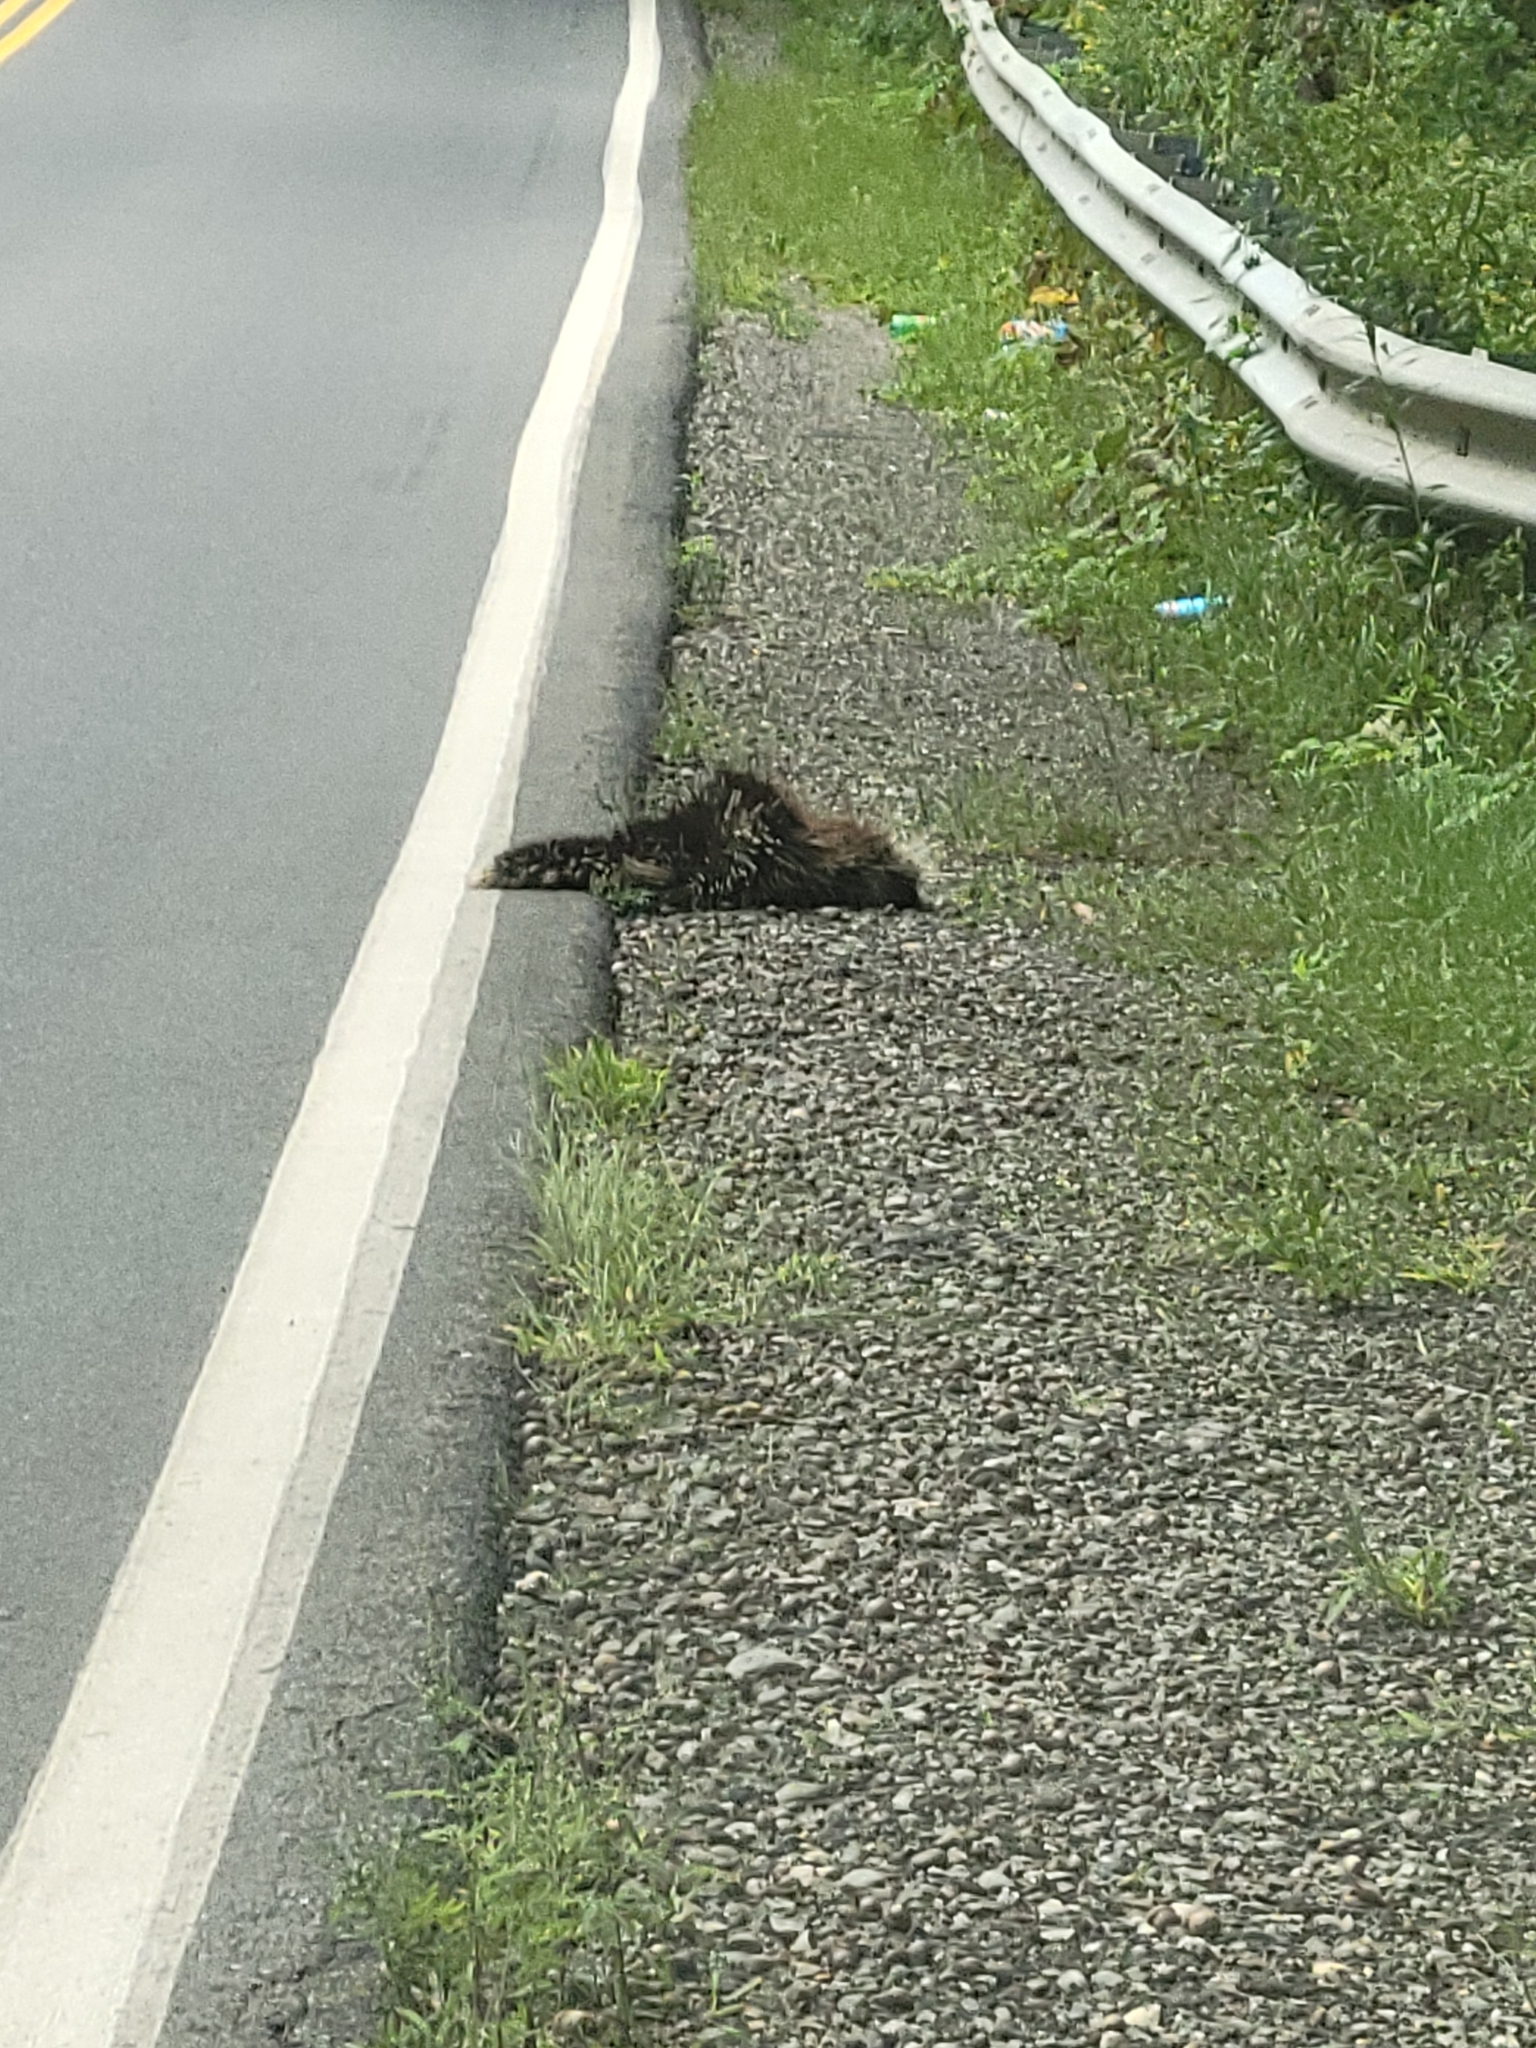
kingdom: Animalia
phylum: Chordata
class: Mammalia
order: Rodentia
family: Erethizontidae
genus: Erethizon
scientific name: Erethizon dorsatus
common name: North american porcupine
